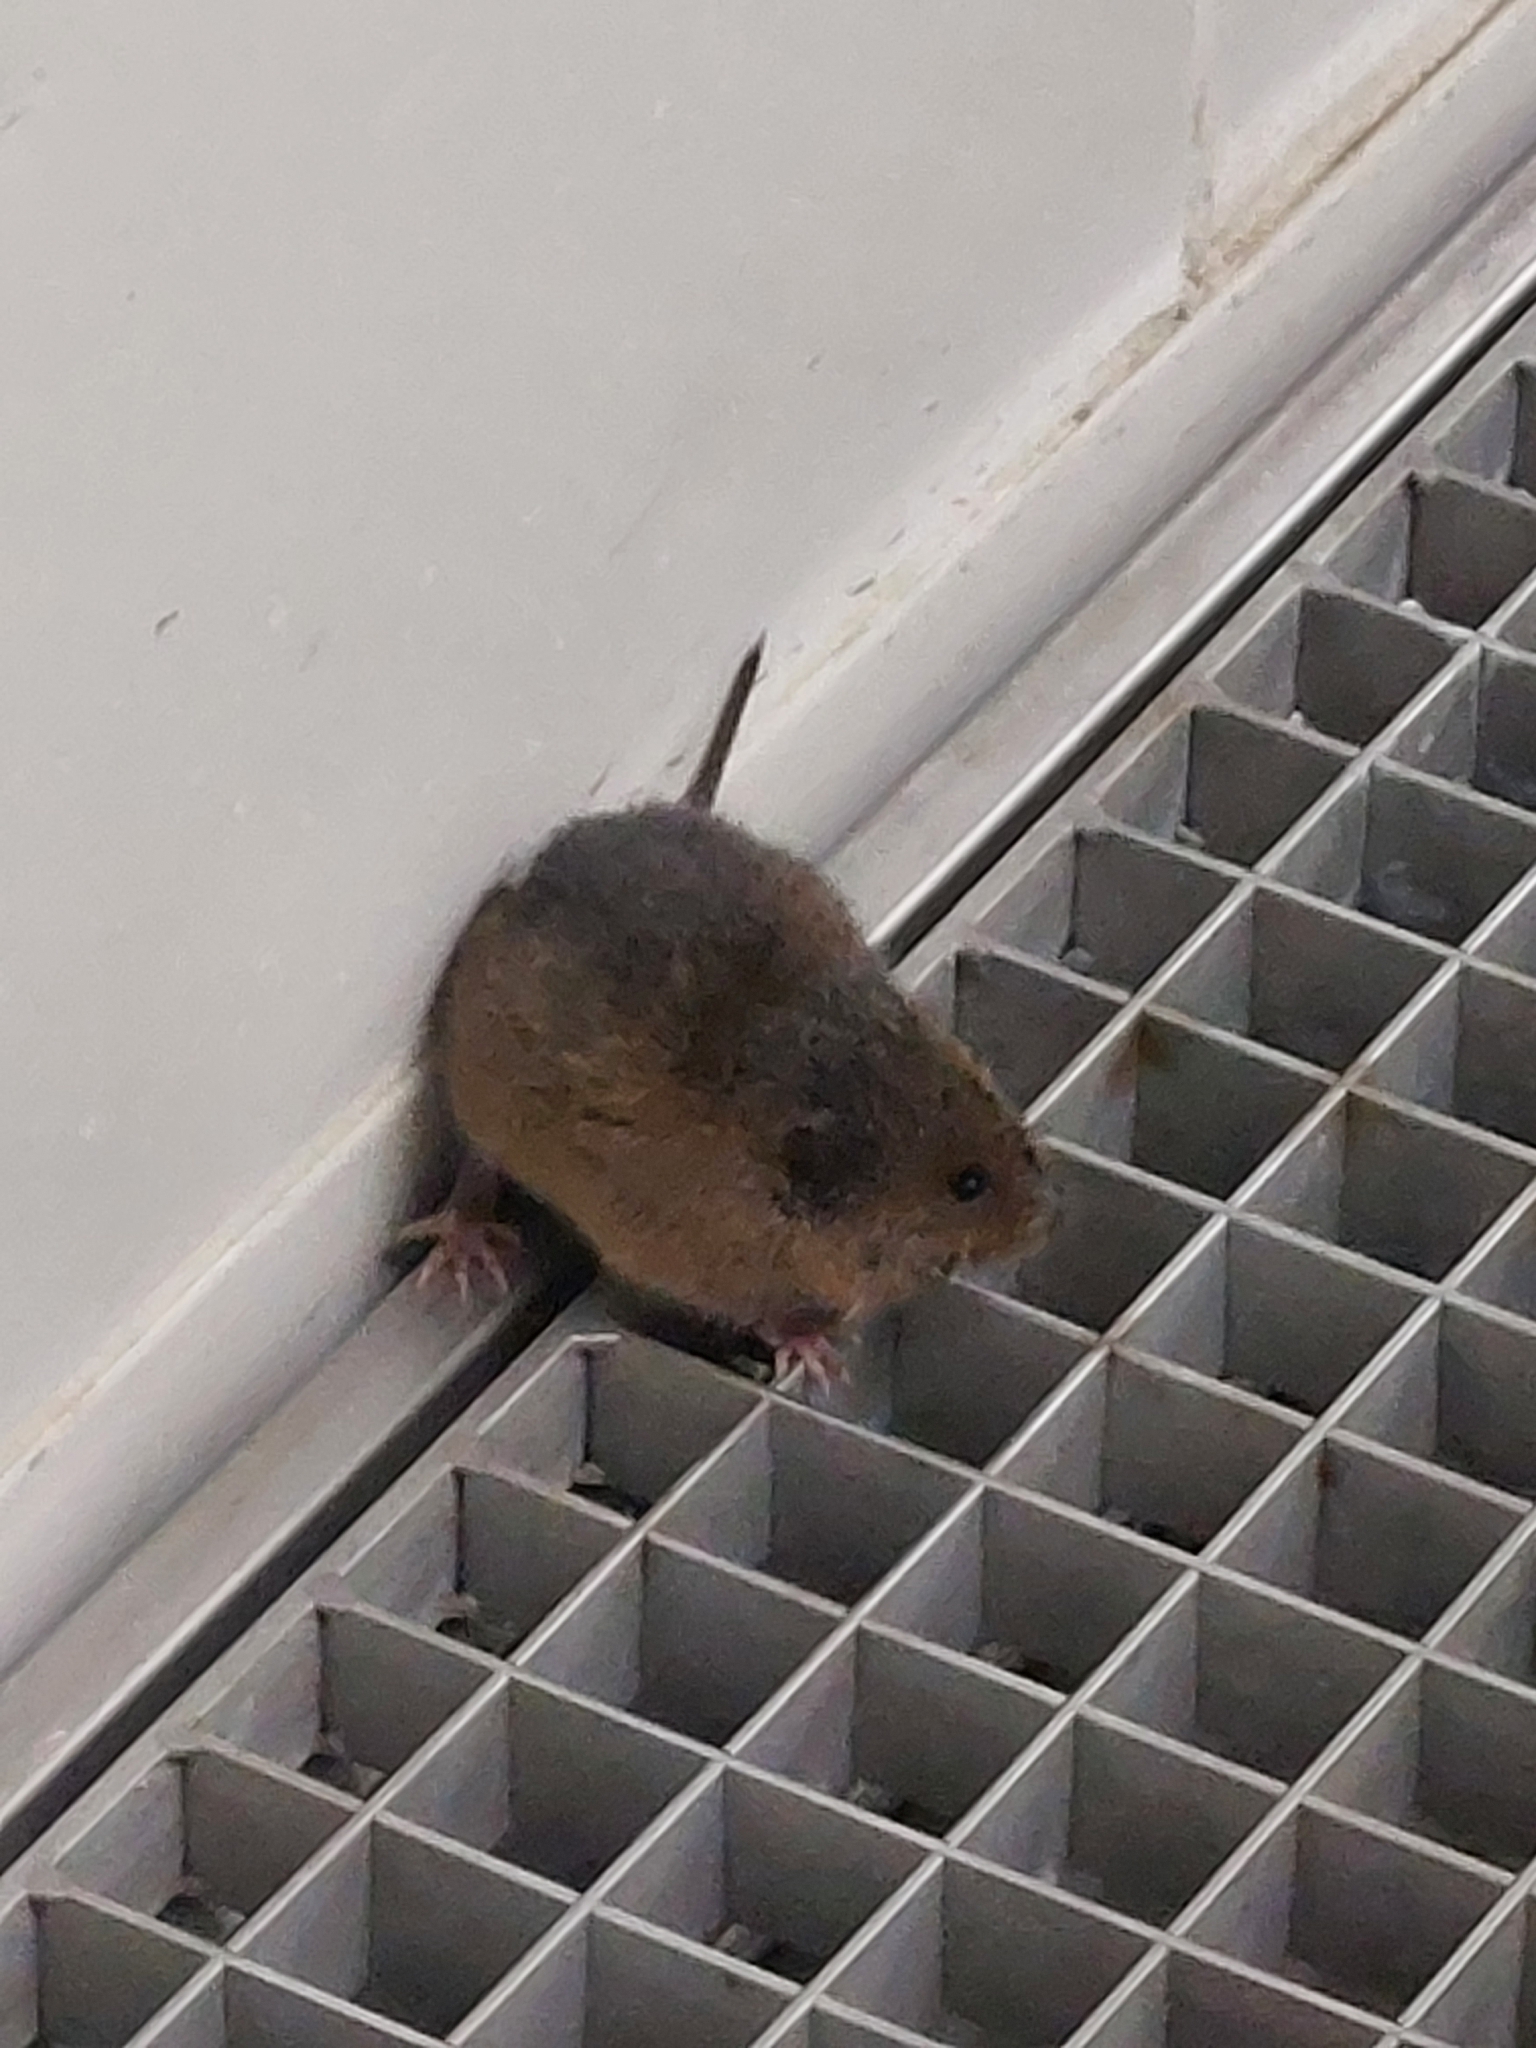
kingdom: Animalia
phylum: Chordata
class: Mammalia
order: Rodentia
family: Cricetidae
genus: Arvicola
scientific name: Arvicola amphibius
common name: European water vole
